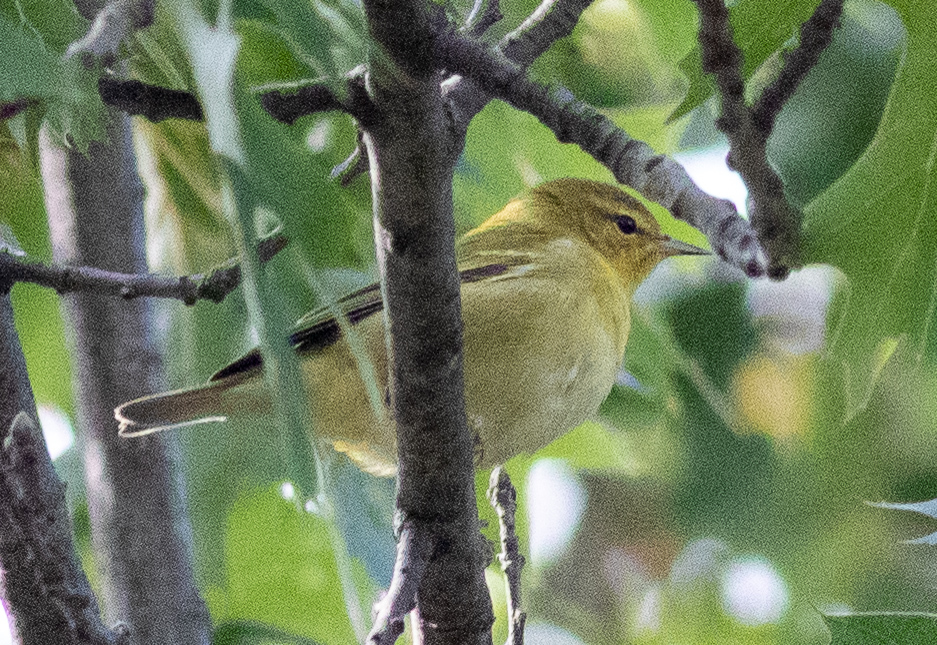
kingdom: Animalia
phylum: Chordata
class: Aves
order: Passeriformes
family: Parulidae
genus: Leiothlypis
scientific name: Leiothlypis peregrina
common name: Tennessee warbler
